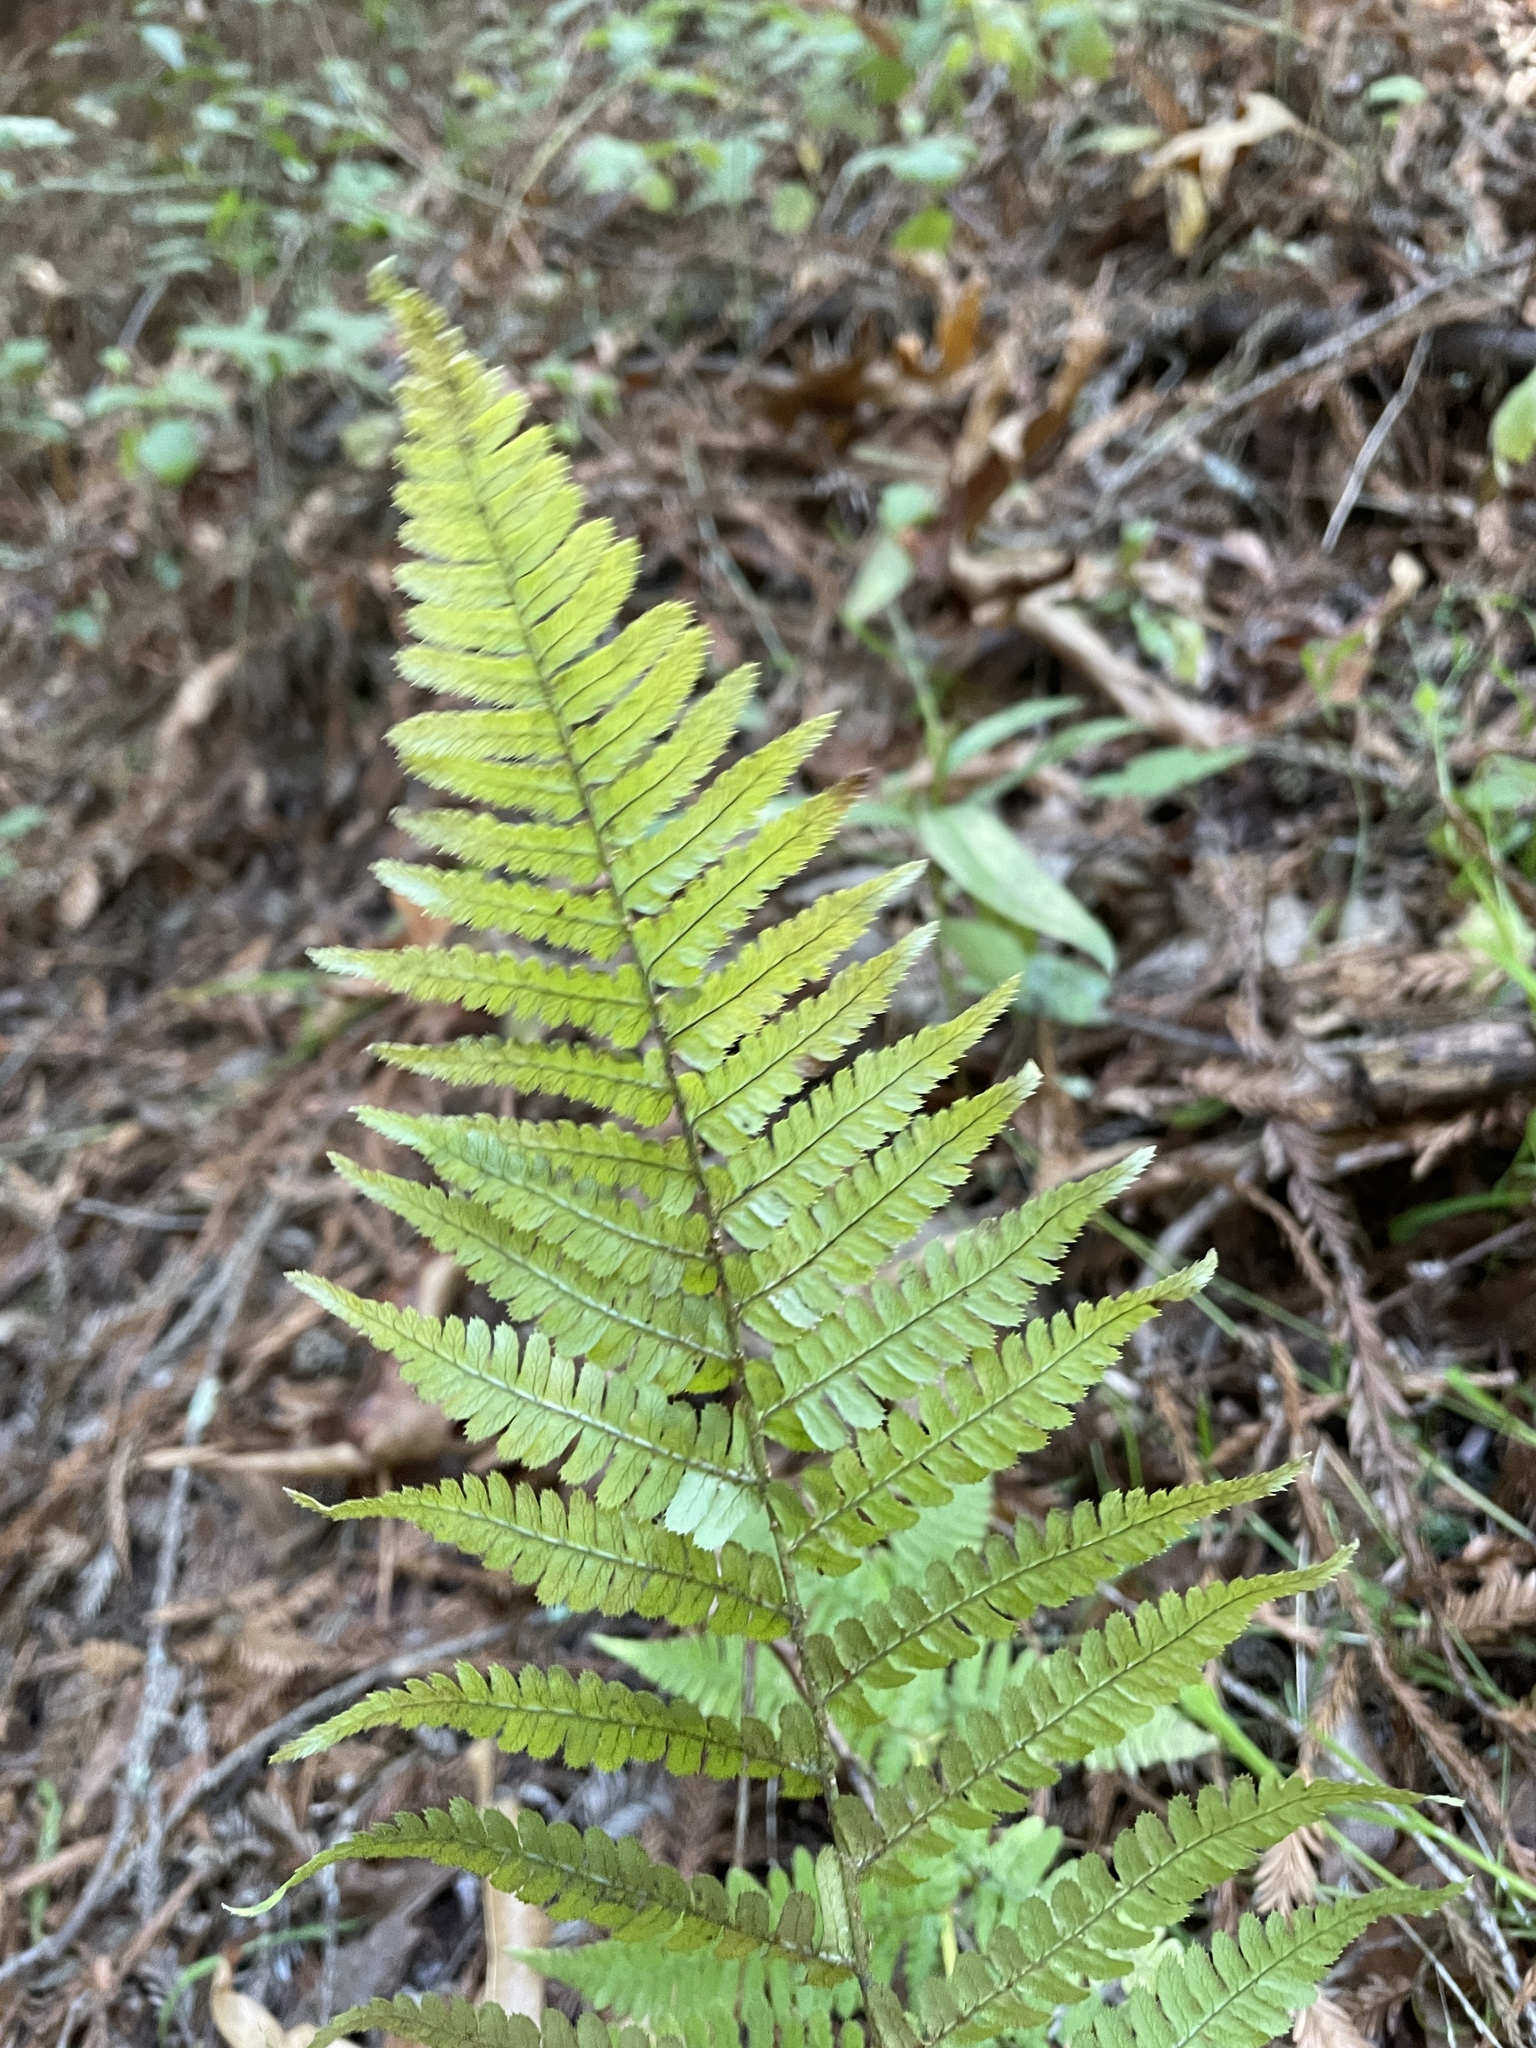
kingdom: Plantae
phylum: Tracheophyta
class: Polypodiopsida
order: Polypodiales
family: Dryopteridaceae
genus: Dryopteris
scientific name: Dryopteris arguta
